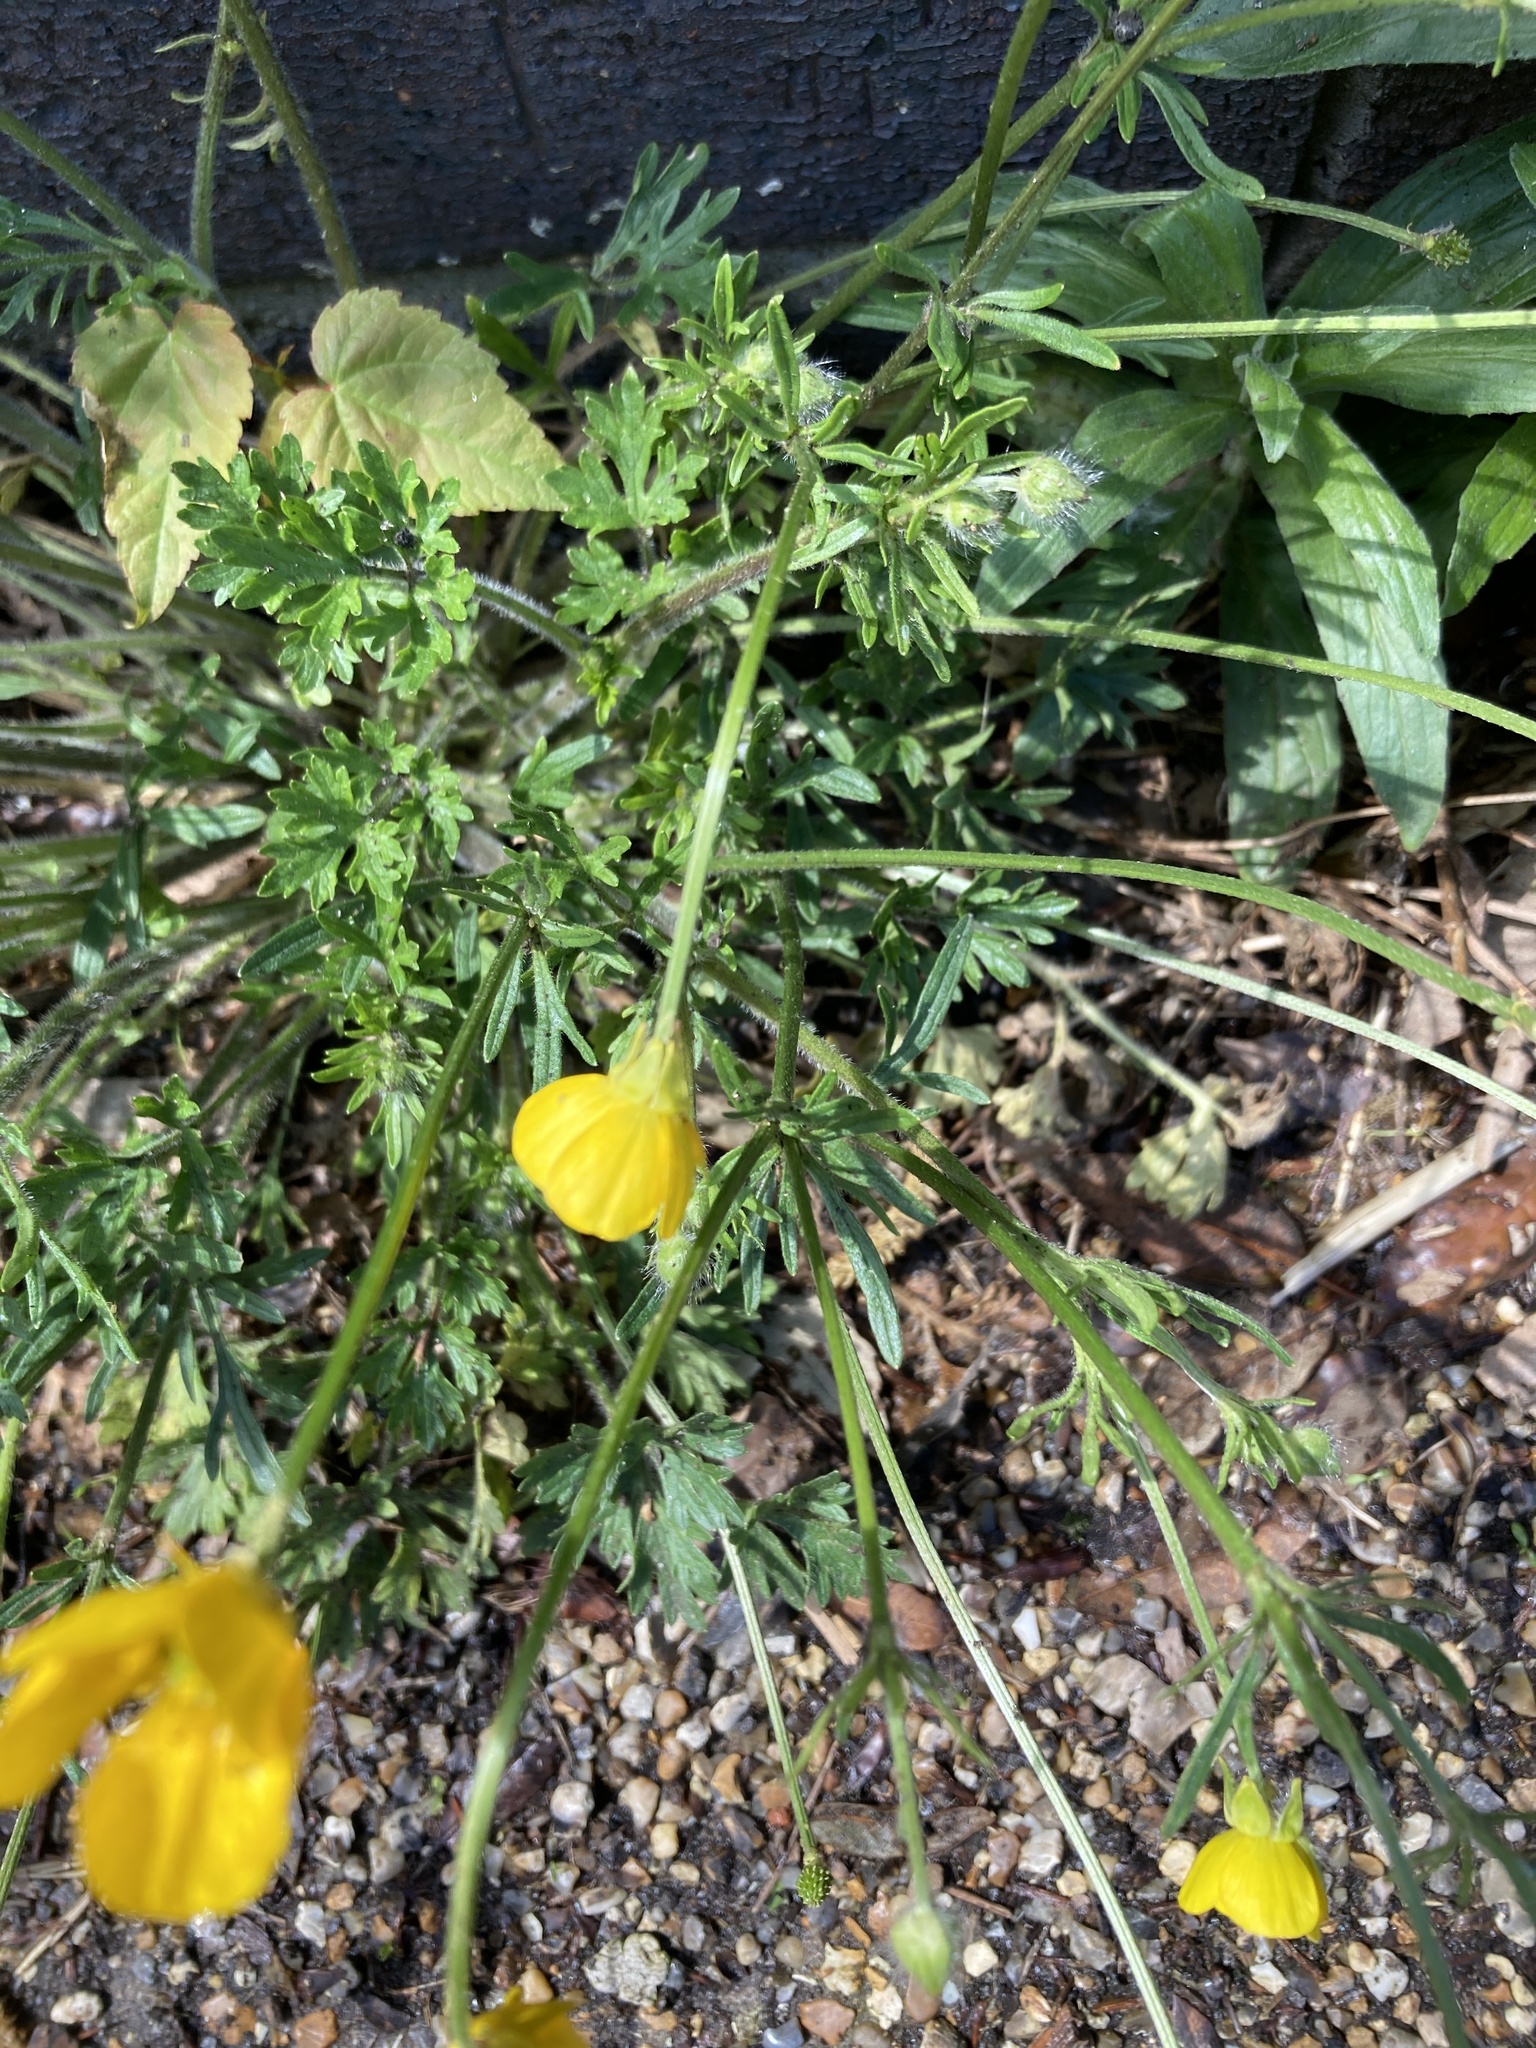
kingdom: Plantae
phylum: Tracheophyta
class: Magnoliopsida
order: Ranunculales
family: Ranunculaceae
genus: Ranunculus
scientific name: Ranunculus bulbosus
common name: Bulbous buttercup
